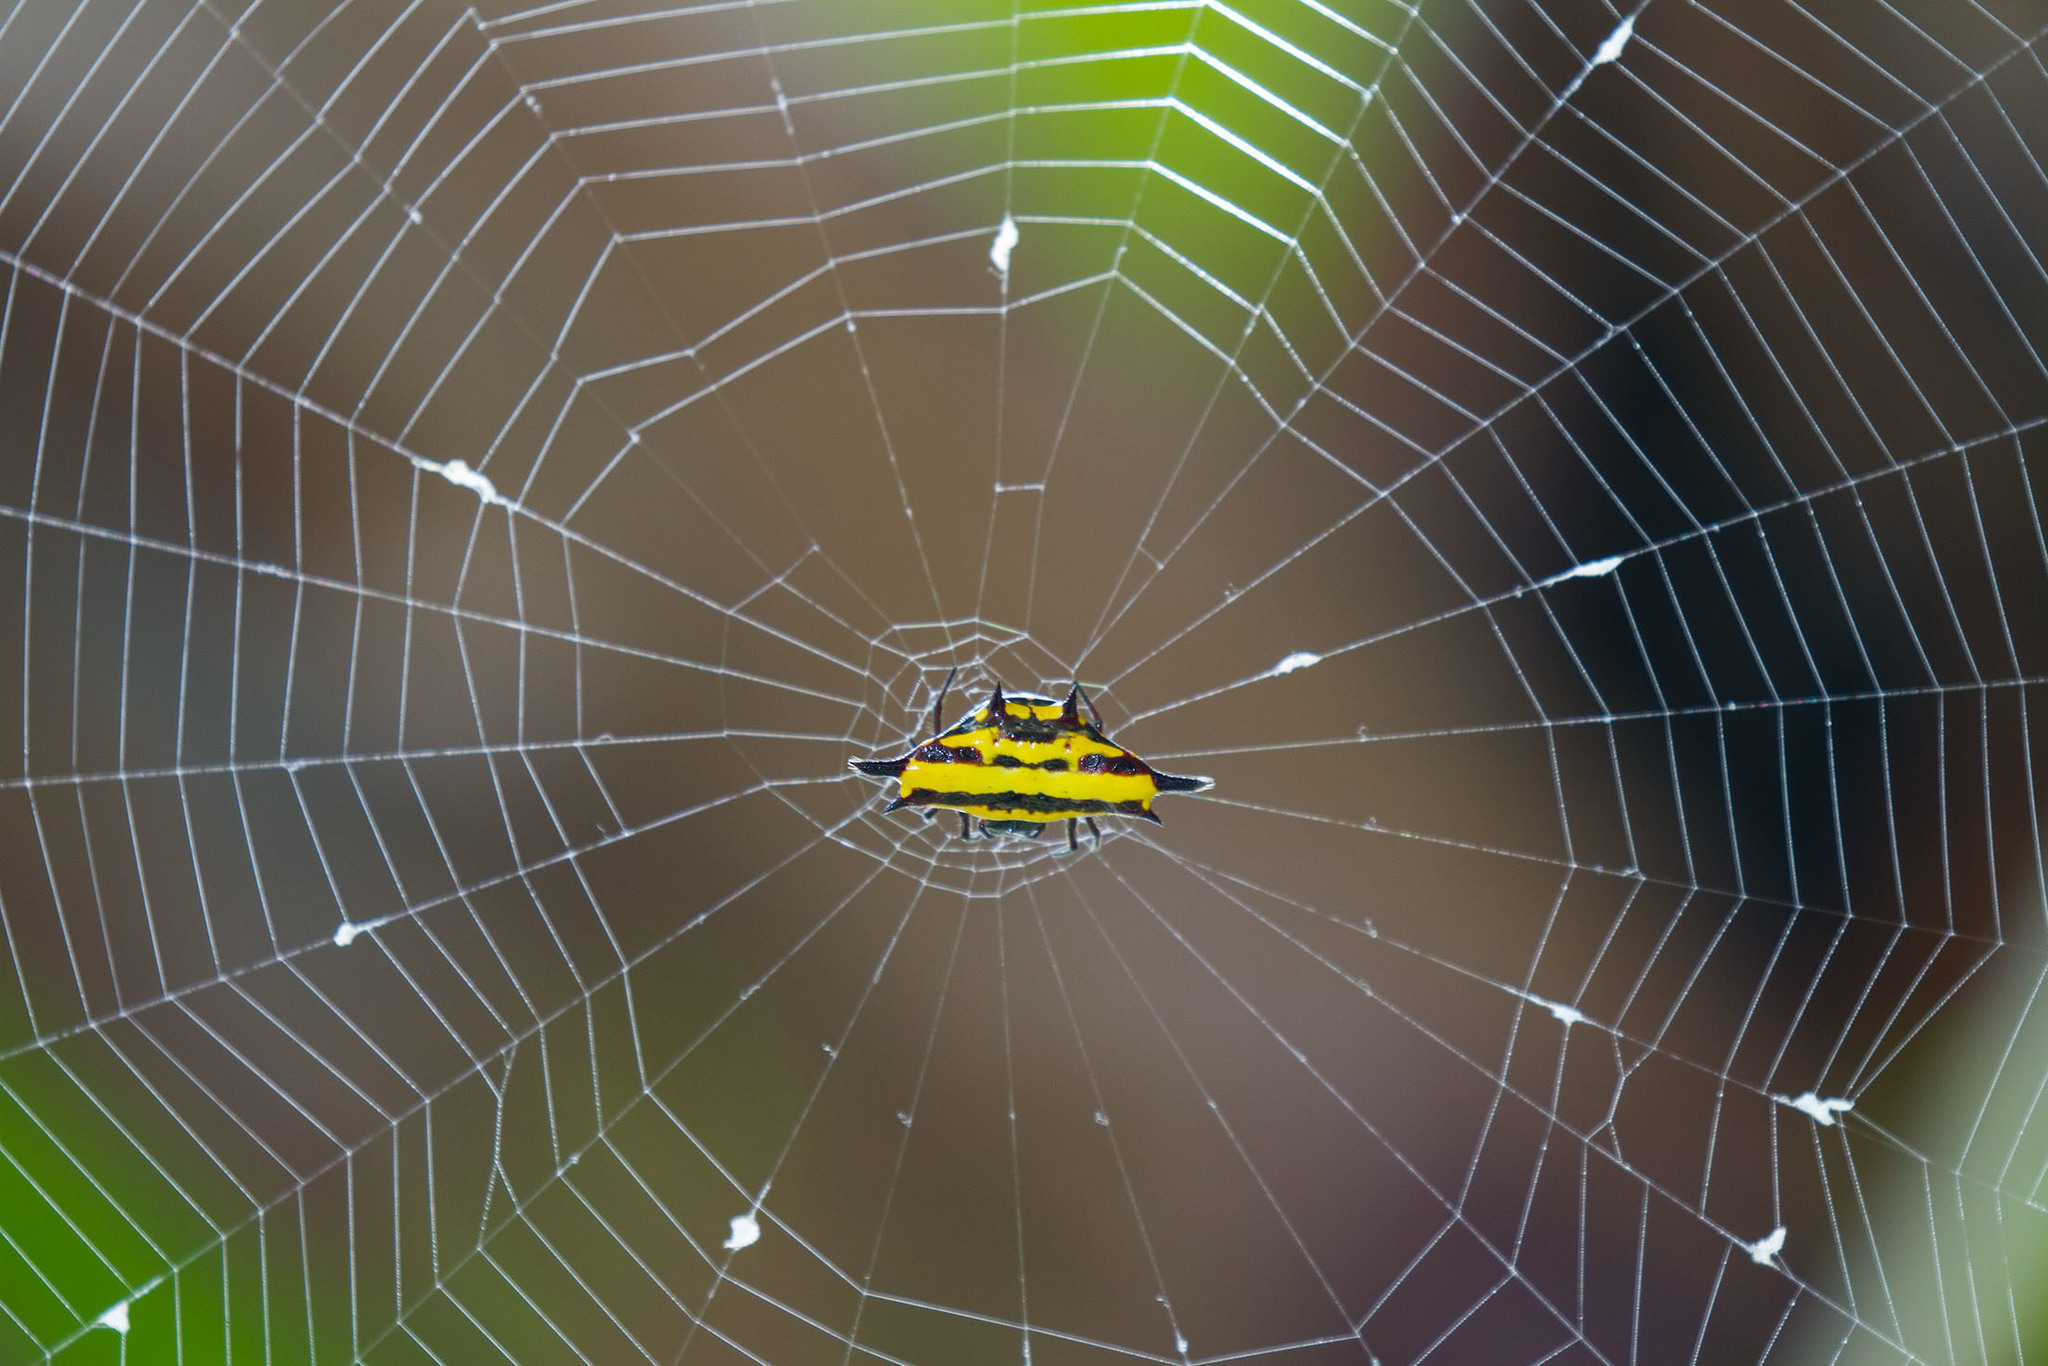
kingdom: Animalia
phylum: Arthropoda
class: Arachnida
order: Araneae
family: Araneidae
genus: Gasteracantha
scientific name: Gasteracantha taeniata
